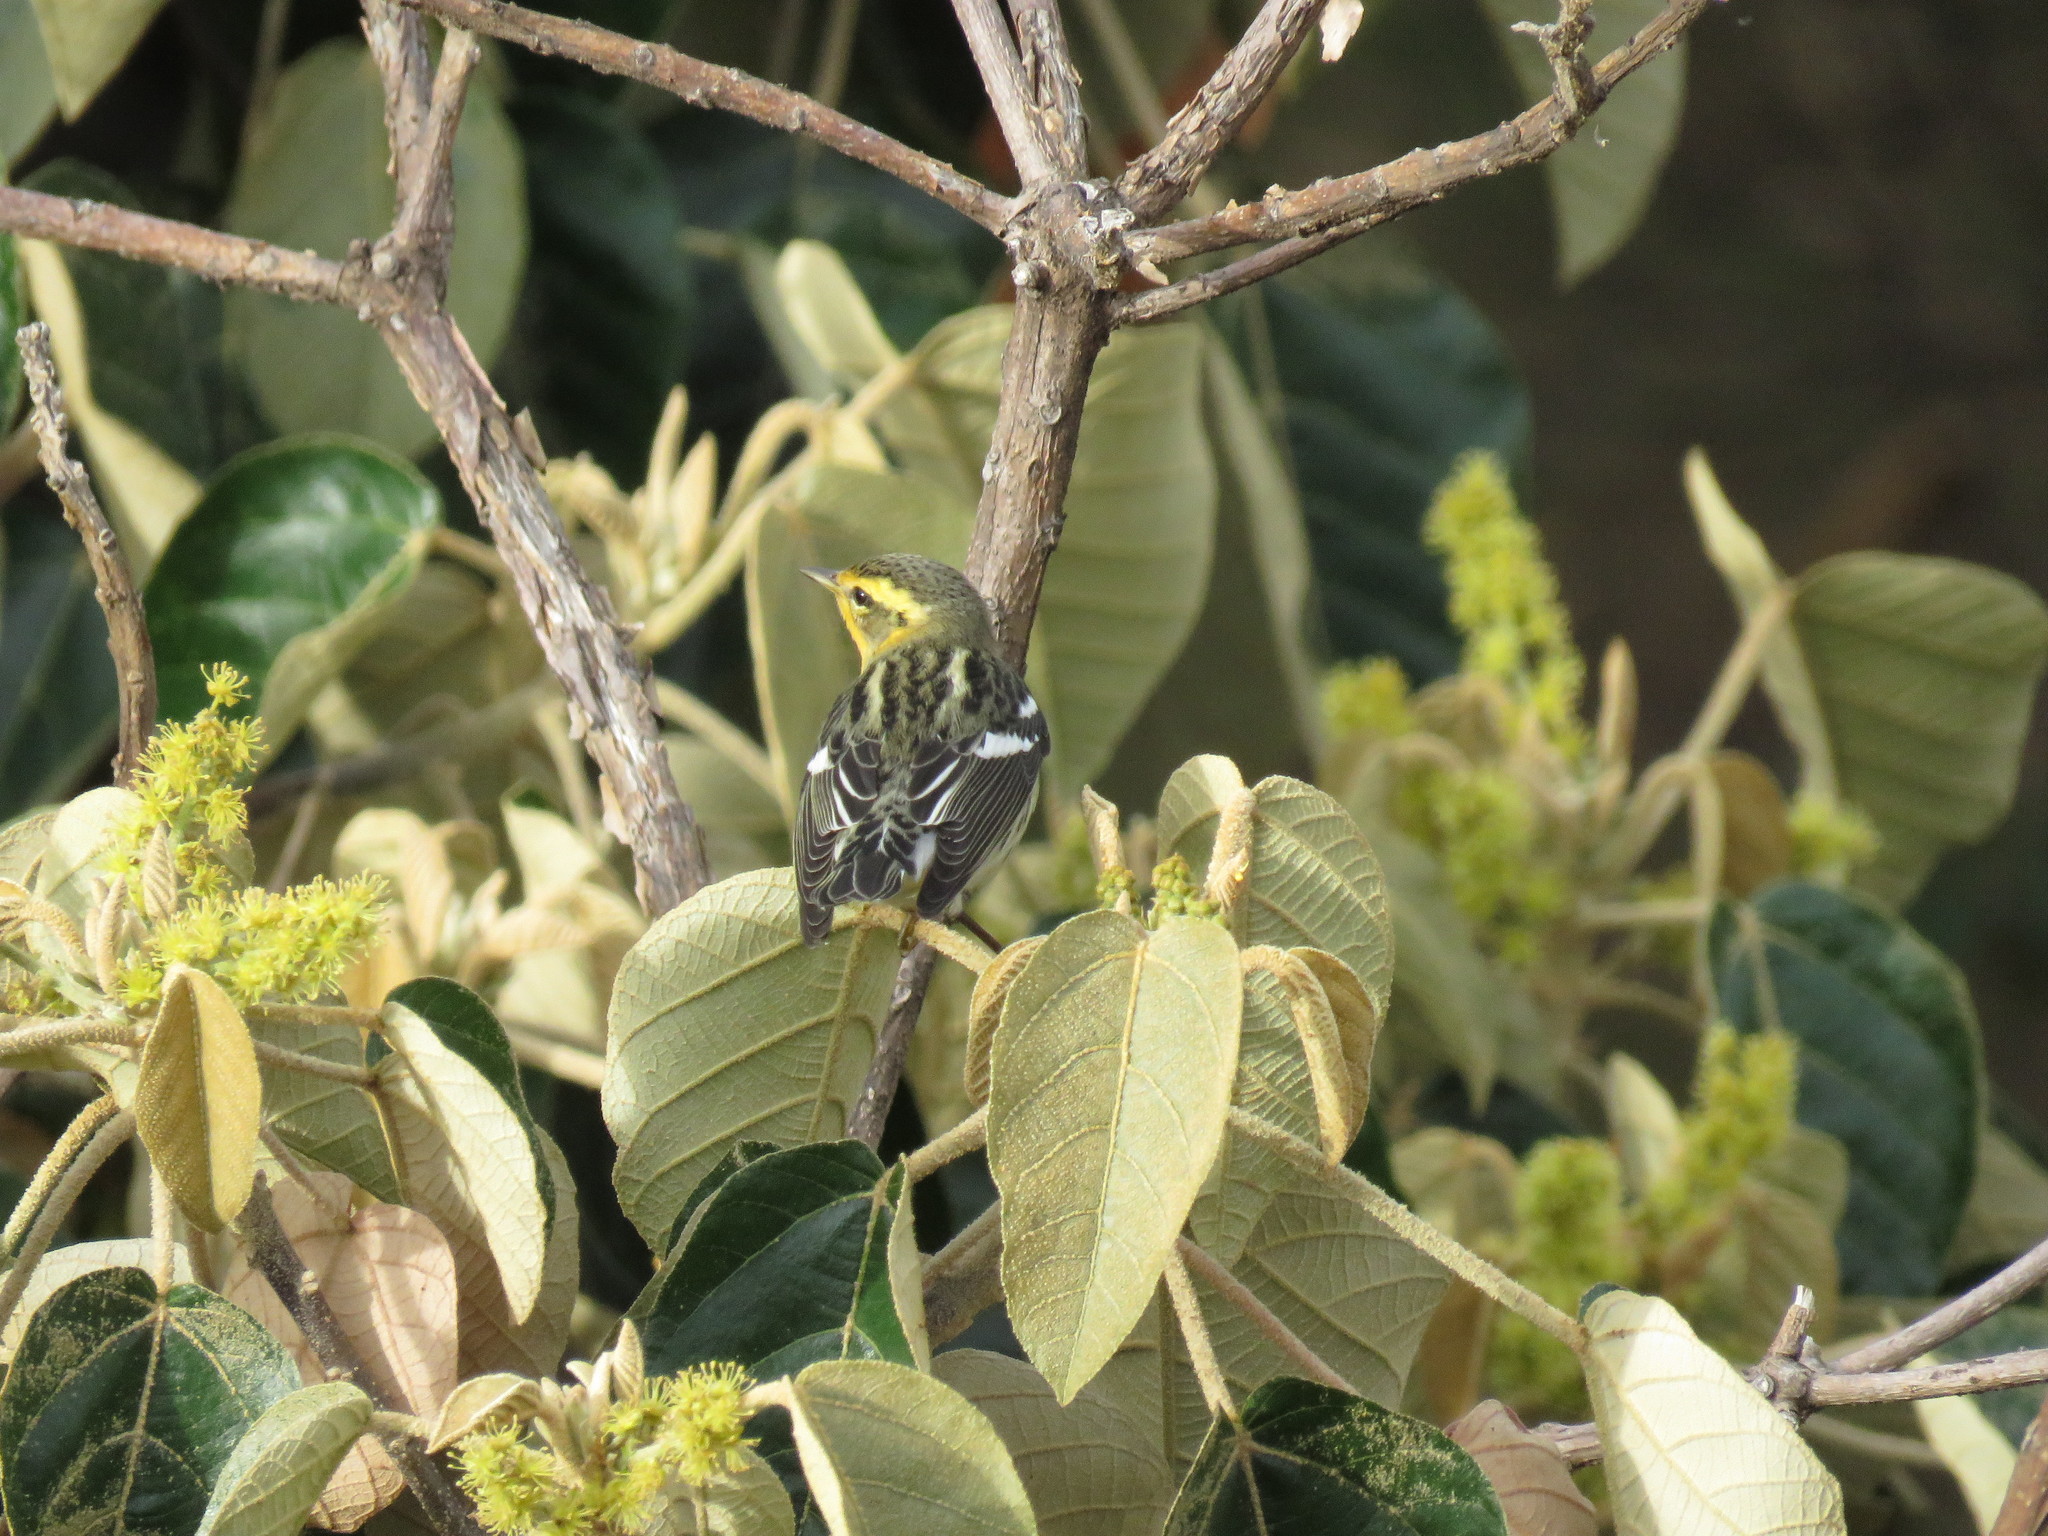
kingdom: Animalia
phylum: Chordata
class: Aves
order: Passeriformes
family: Parulidae
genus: Setophaga
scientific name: Setophaga fusca
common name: Blackburnian warbler
